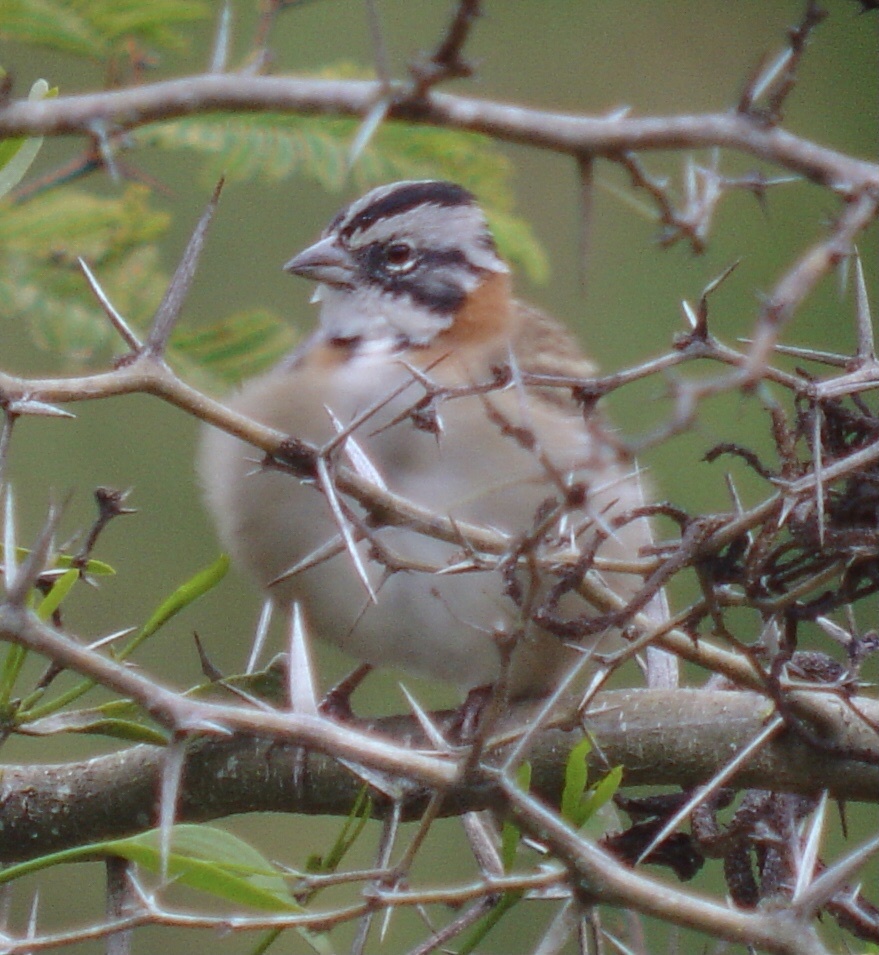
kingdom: Animalia
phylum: Chordata
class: Aves
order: Passeriformes
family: Passerellidae
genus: Zonotrichia
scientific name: Zonotrichia capensis
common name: Rufous-collared sparrow
